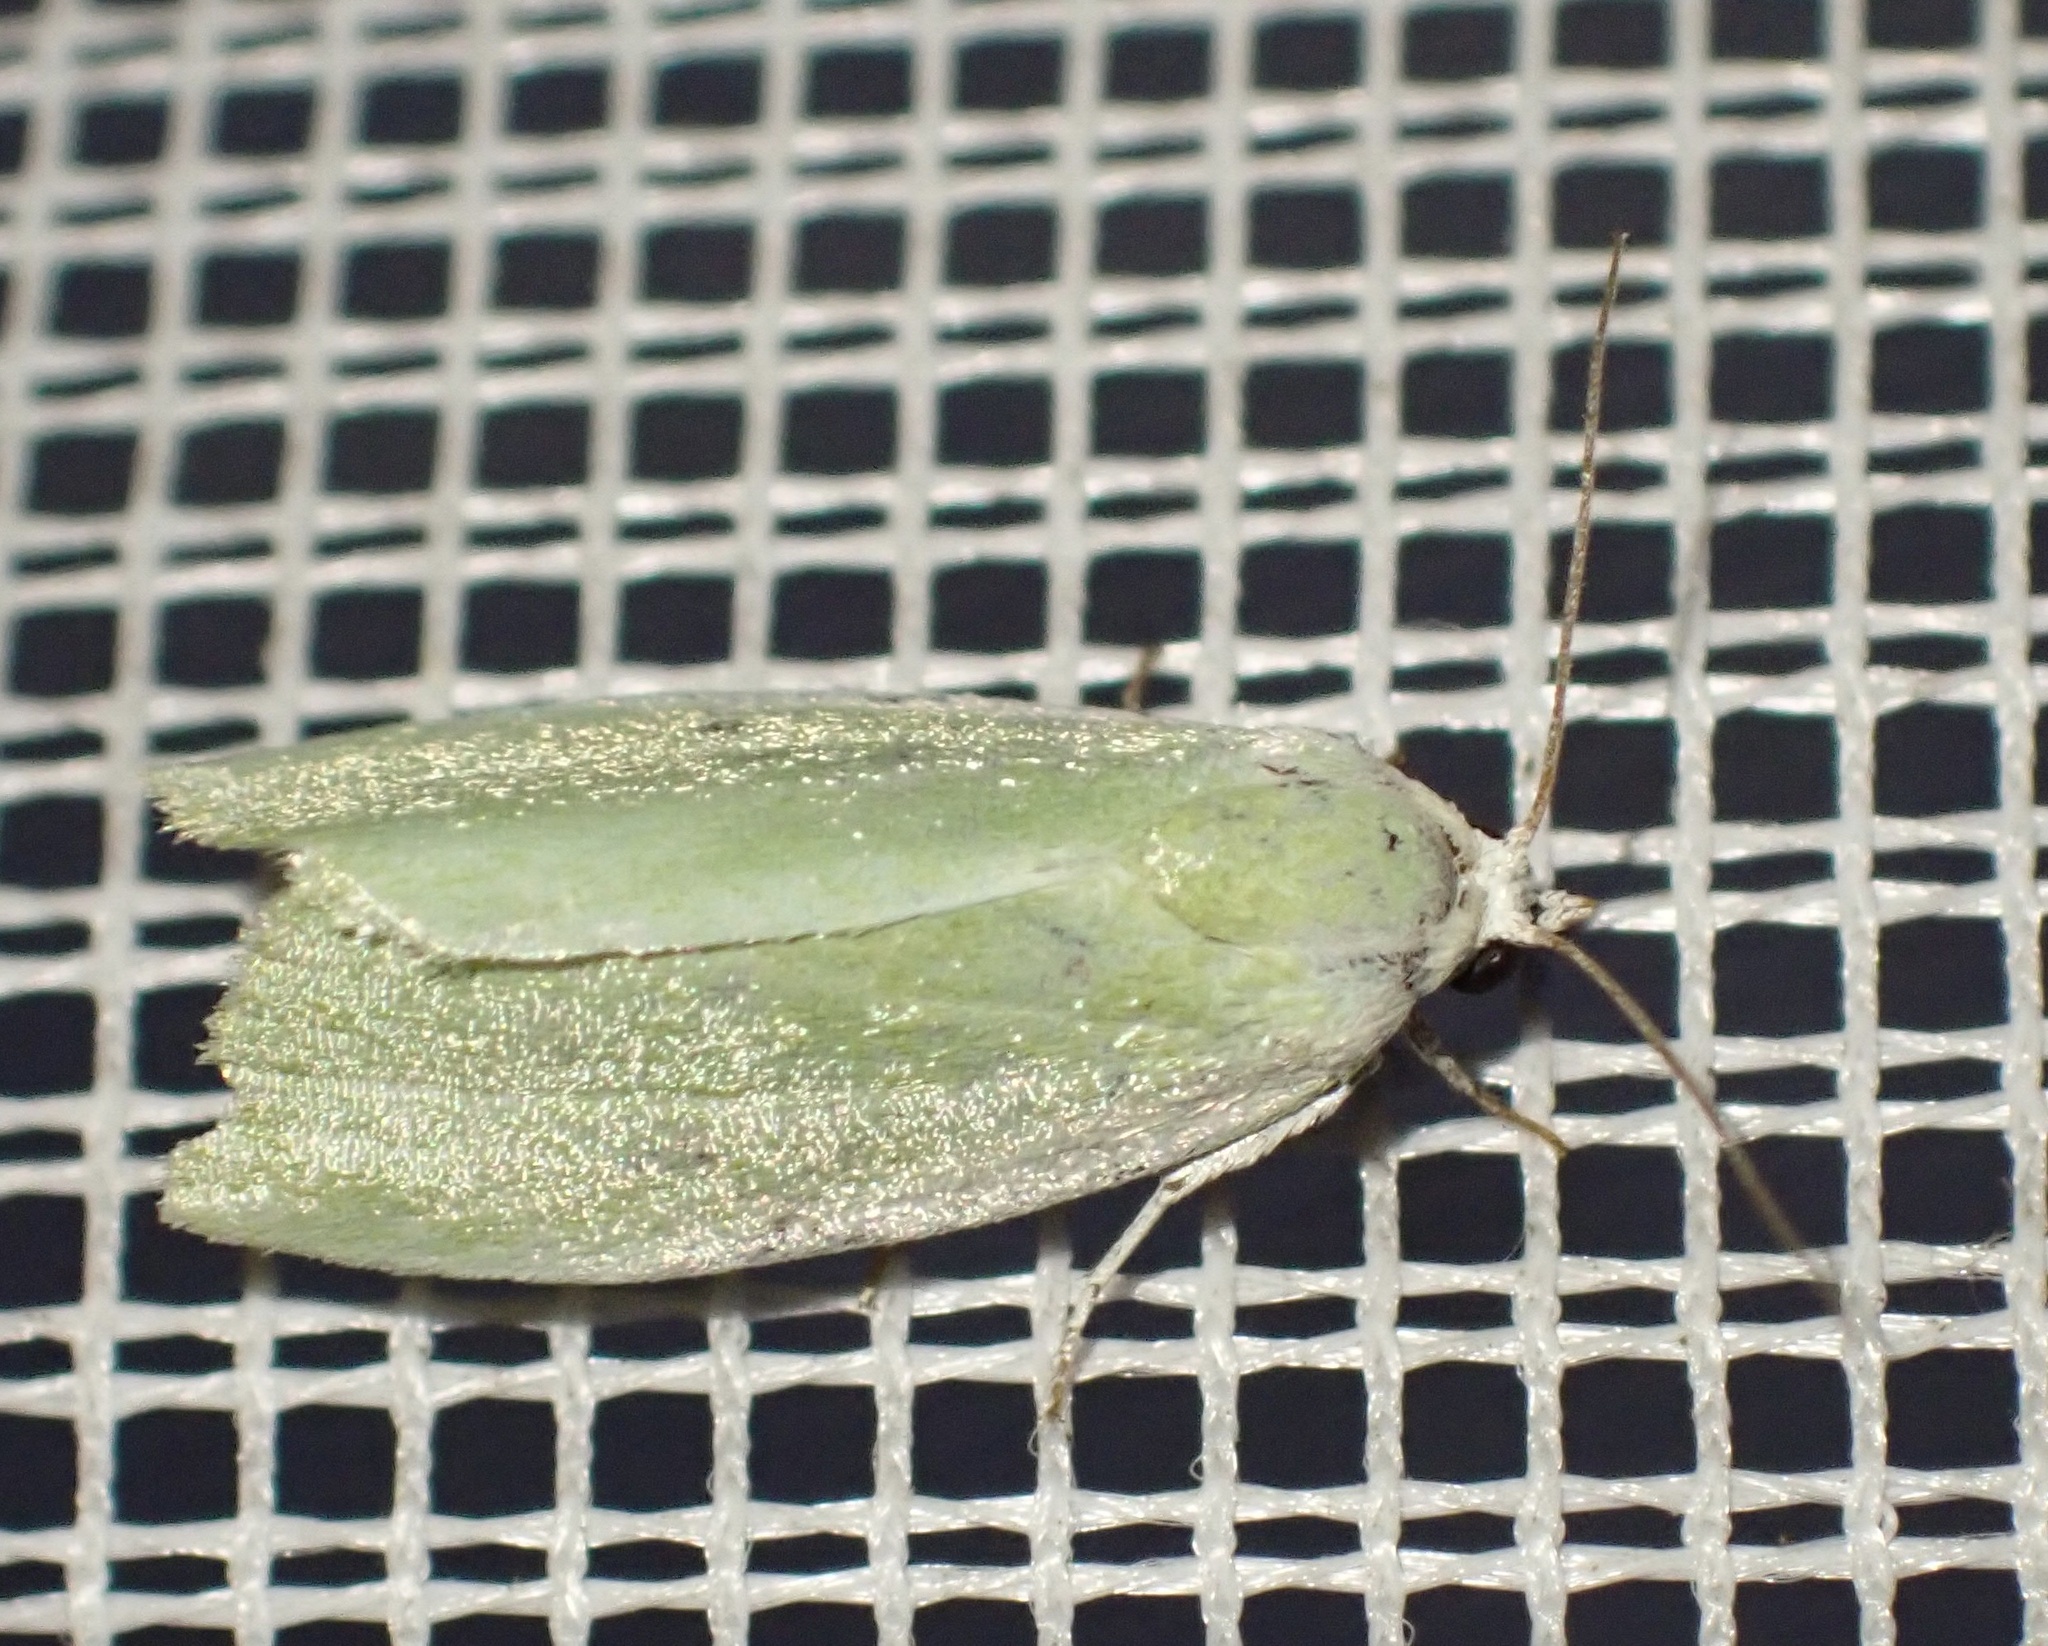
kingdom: Animalia
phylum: Arthropoda
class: Insecta
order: Lepidoptera
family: Nolidae
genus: Earias
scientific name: Earias clorana
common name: Cream-bordered green pea
